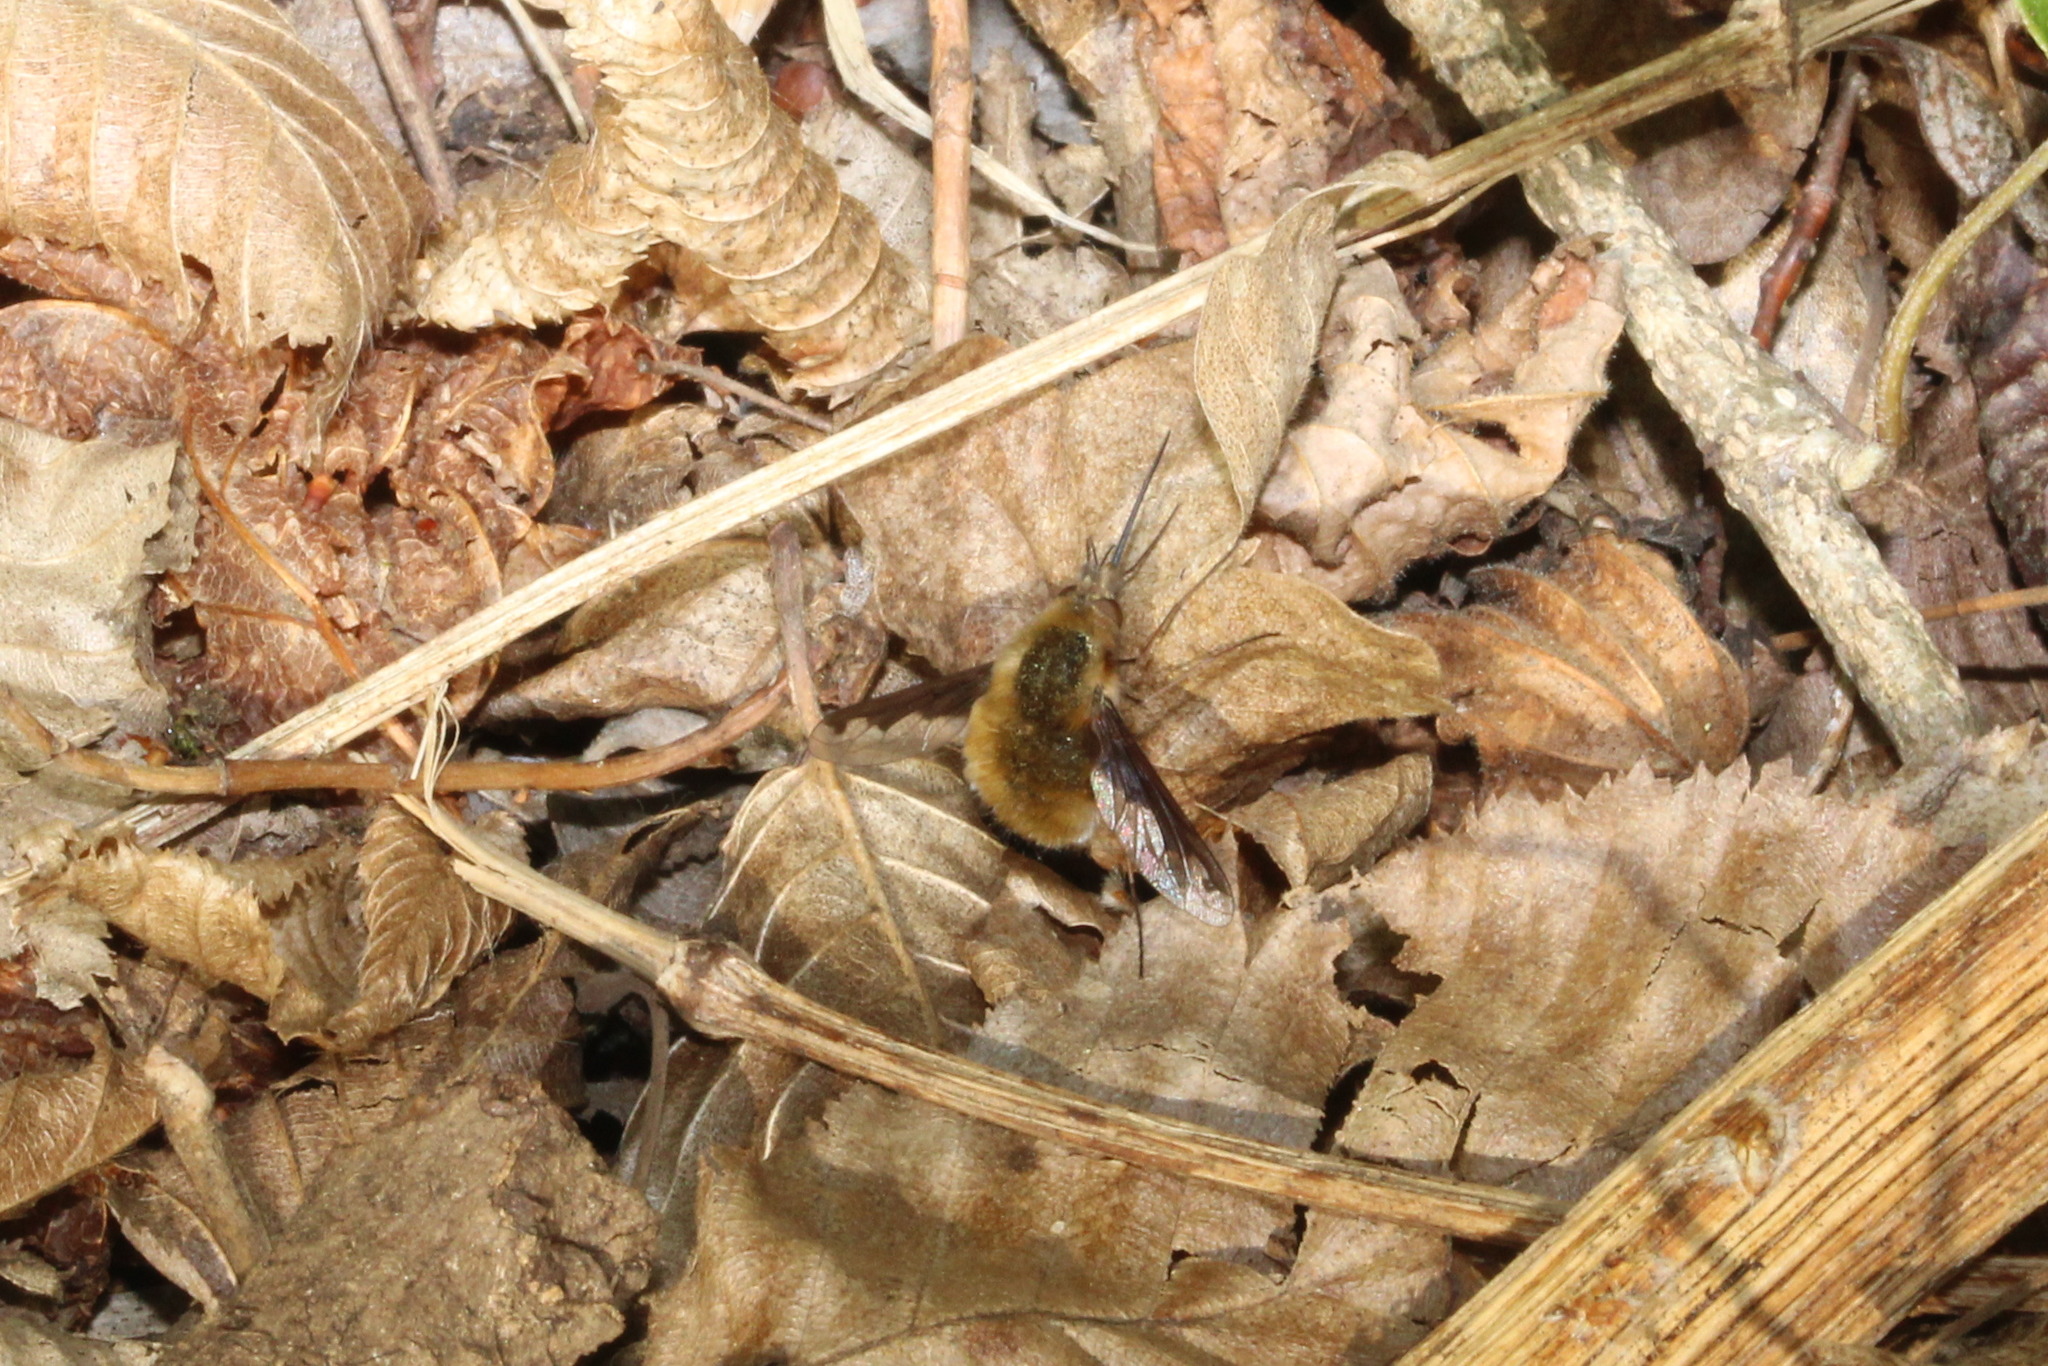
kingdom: Animalia
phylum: Arthropoda
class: Insecta
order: Diptera
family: Bombyliidae
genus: Bombylius
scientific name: Bombylius major
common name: Bee fly
